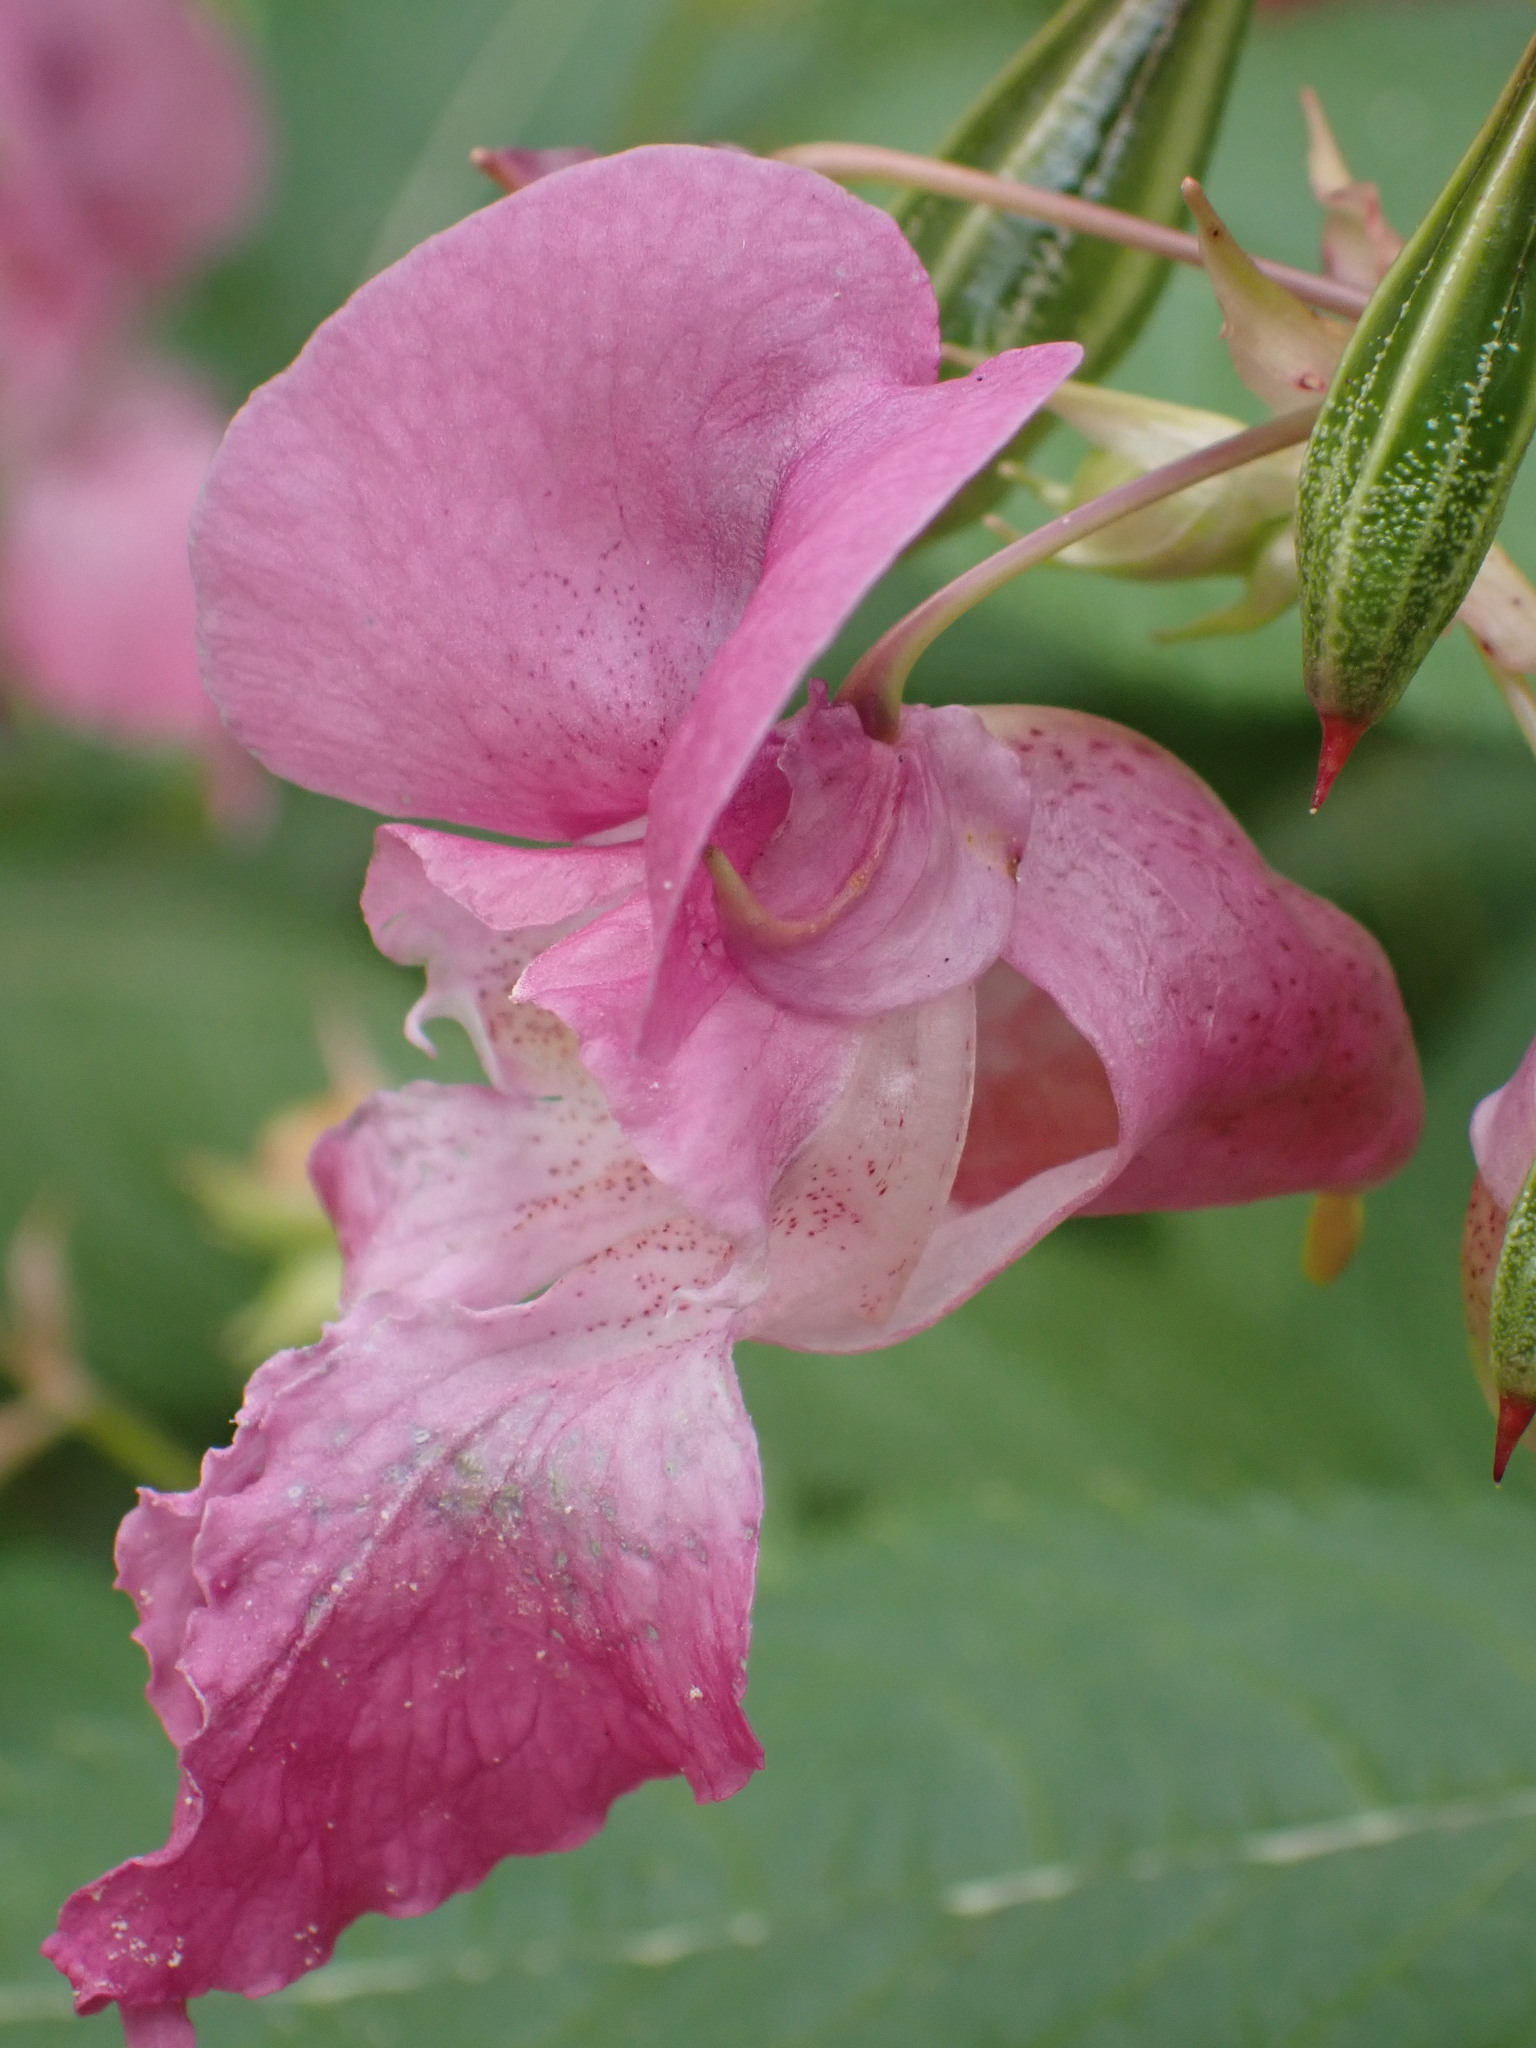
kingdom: Plantae
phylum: Tracheophyta
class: Magnoliopsida
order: Ericales
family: Balsaminaceae
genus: Impatiens
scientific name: Impatiens glandulifera
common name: Himalayan balsam
